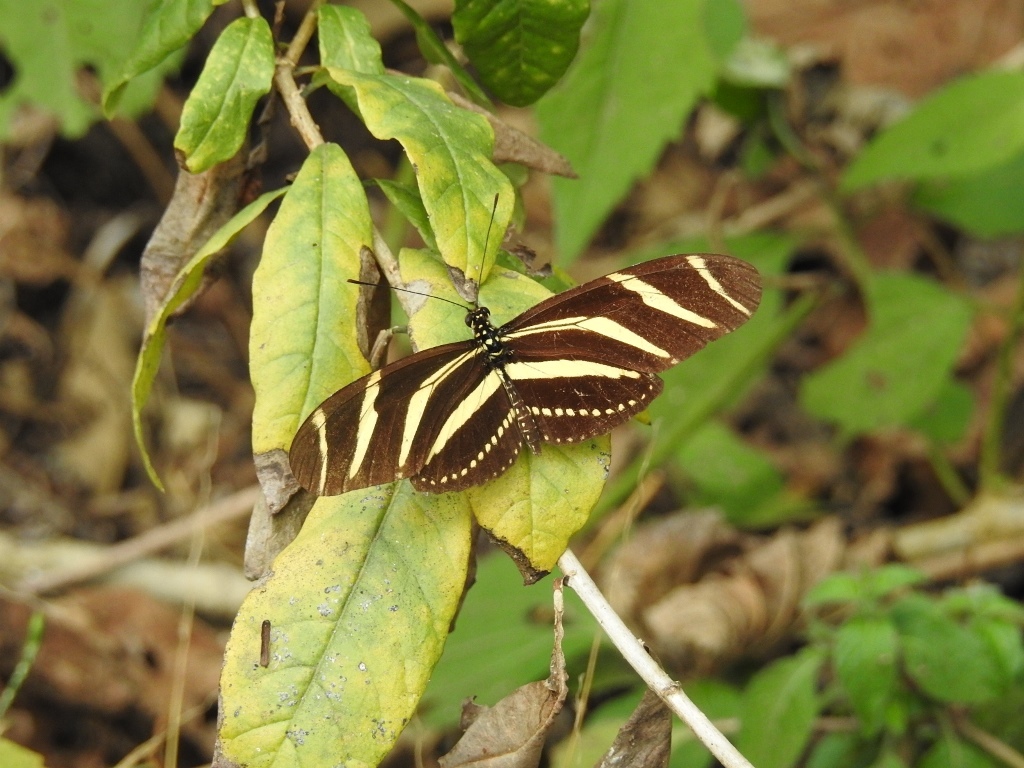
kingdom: Animalia
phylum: Arthropoda
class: Insecta
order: Lepidoptera
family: Nymphalidae
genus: Heliconius
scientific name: Heliconius charithonia
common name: Zebra long wing
